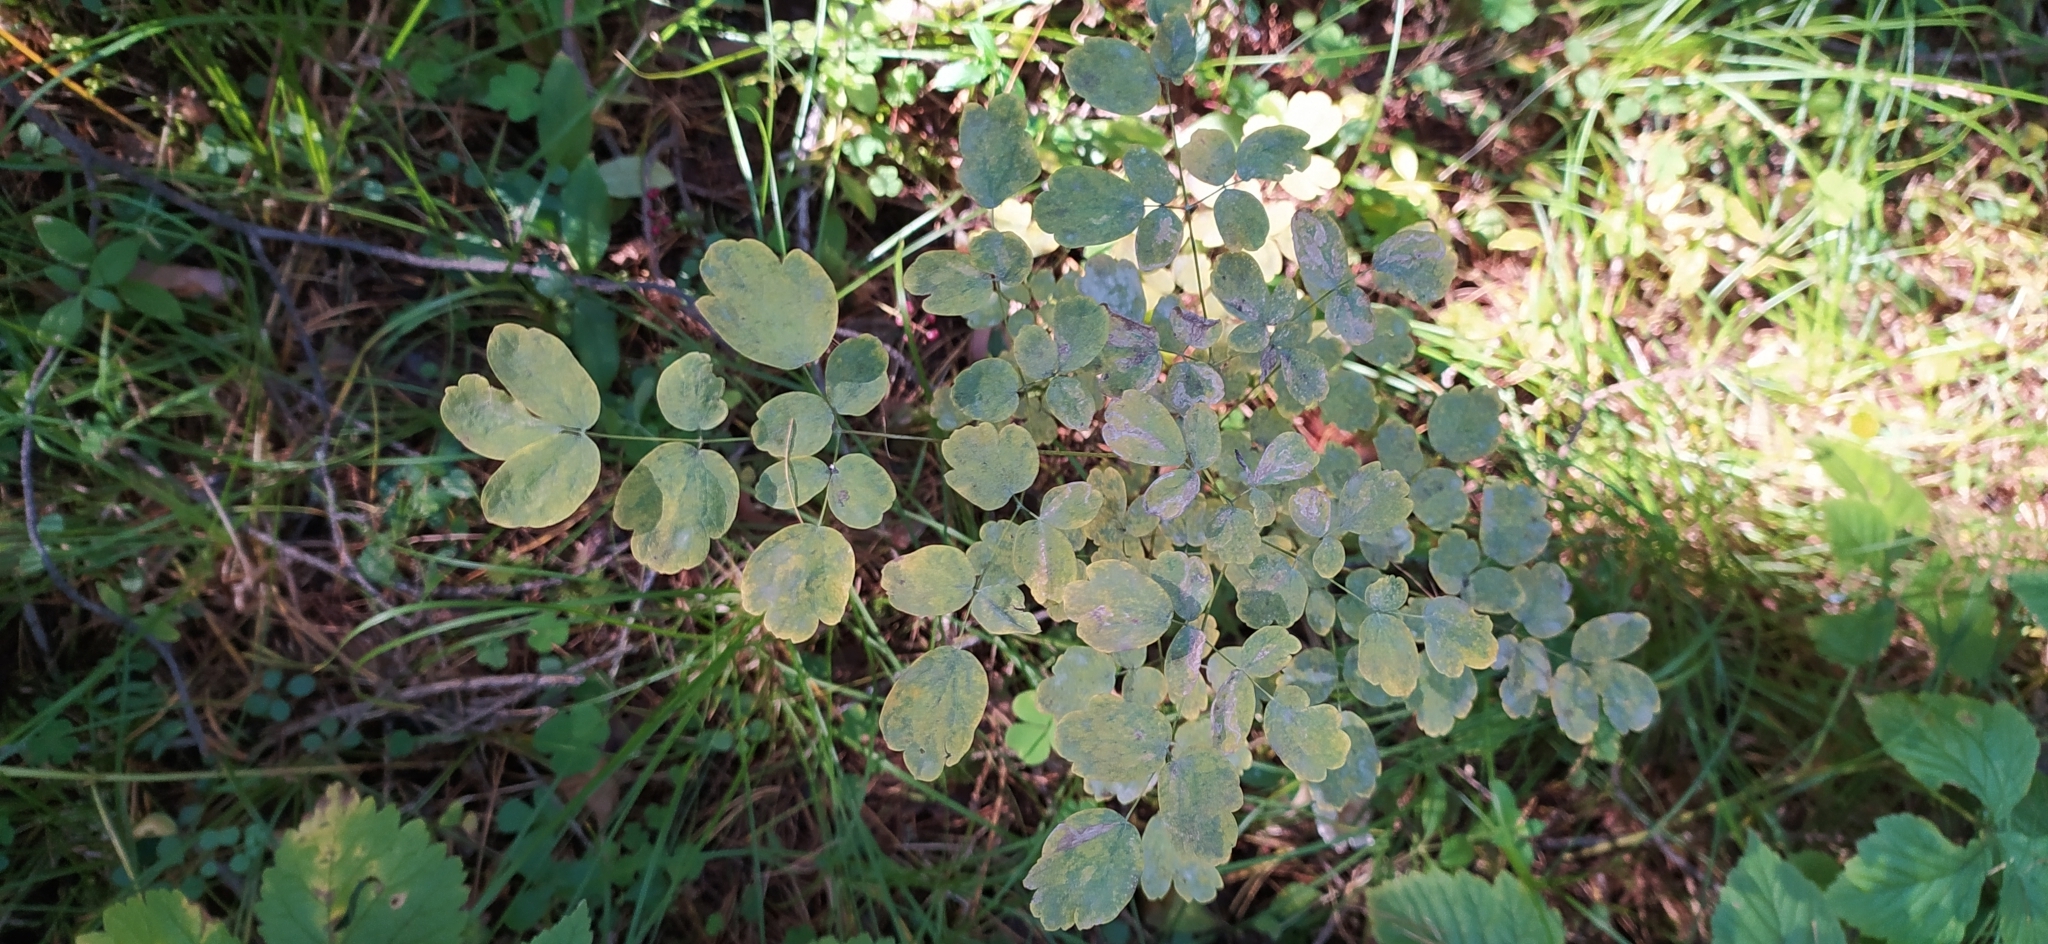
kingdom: Plantae
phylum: Tracheophyta
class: Magnoliopsida
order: Ranunculales
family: Ranunculaceae
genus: Thalictrum
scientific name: Thalictrum minus
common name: Lesser meadow-rue
